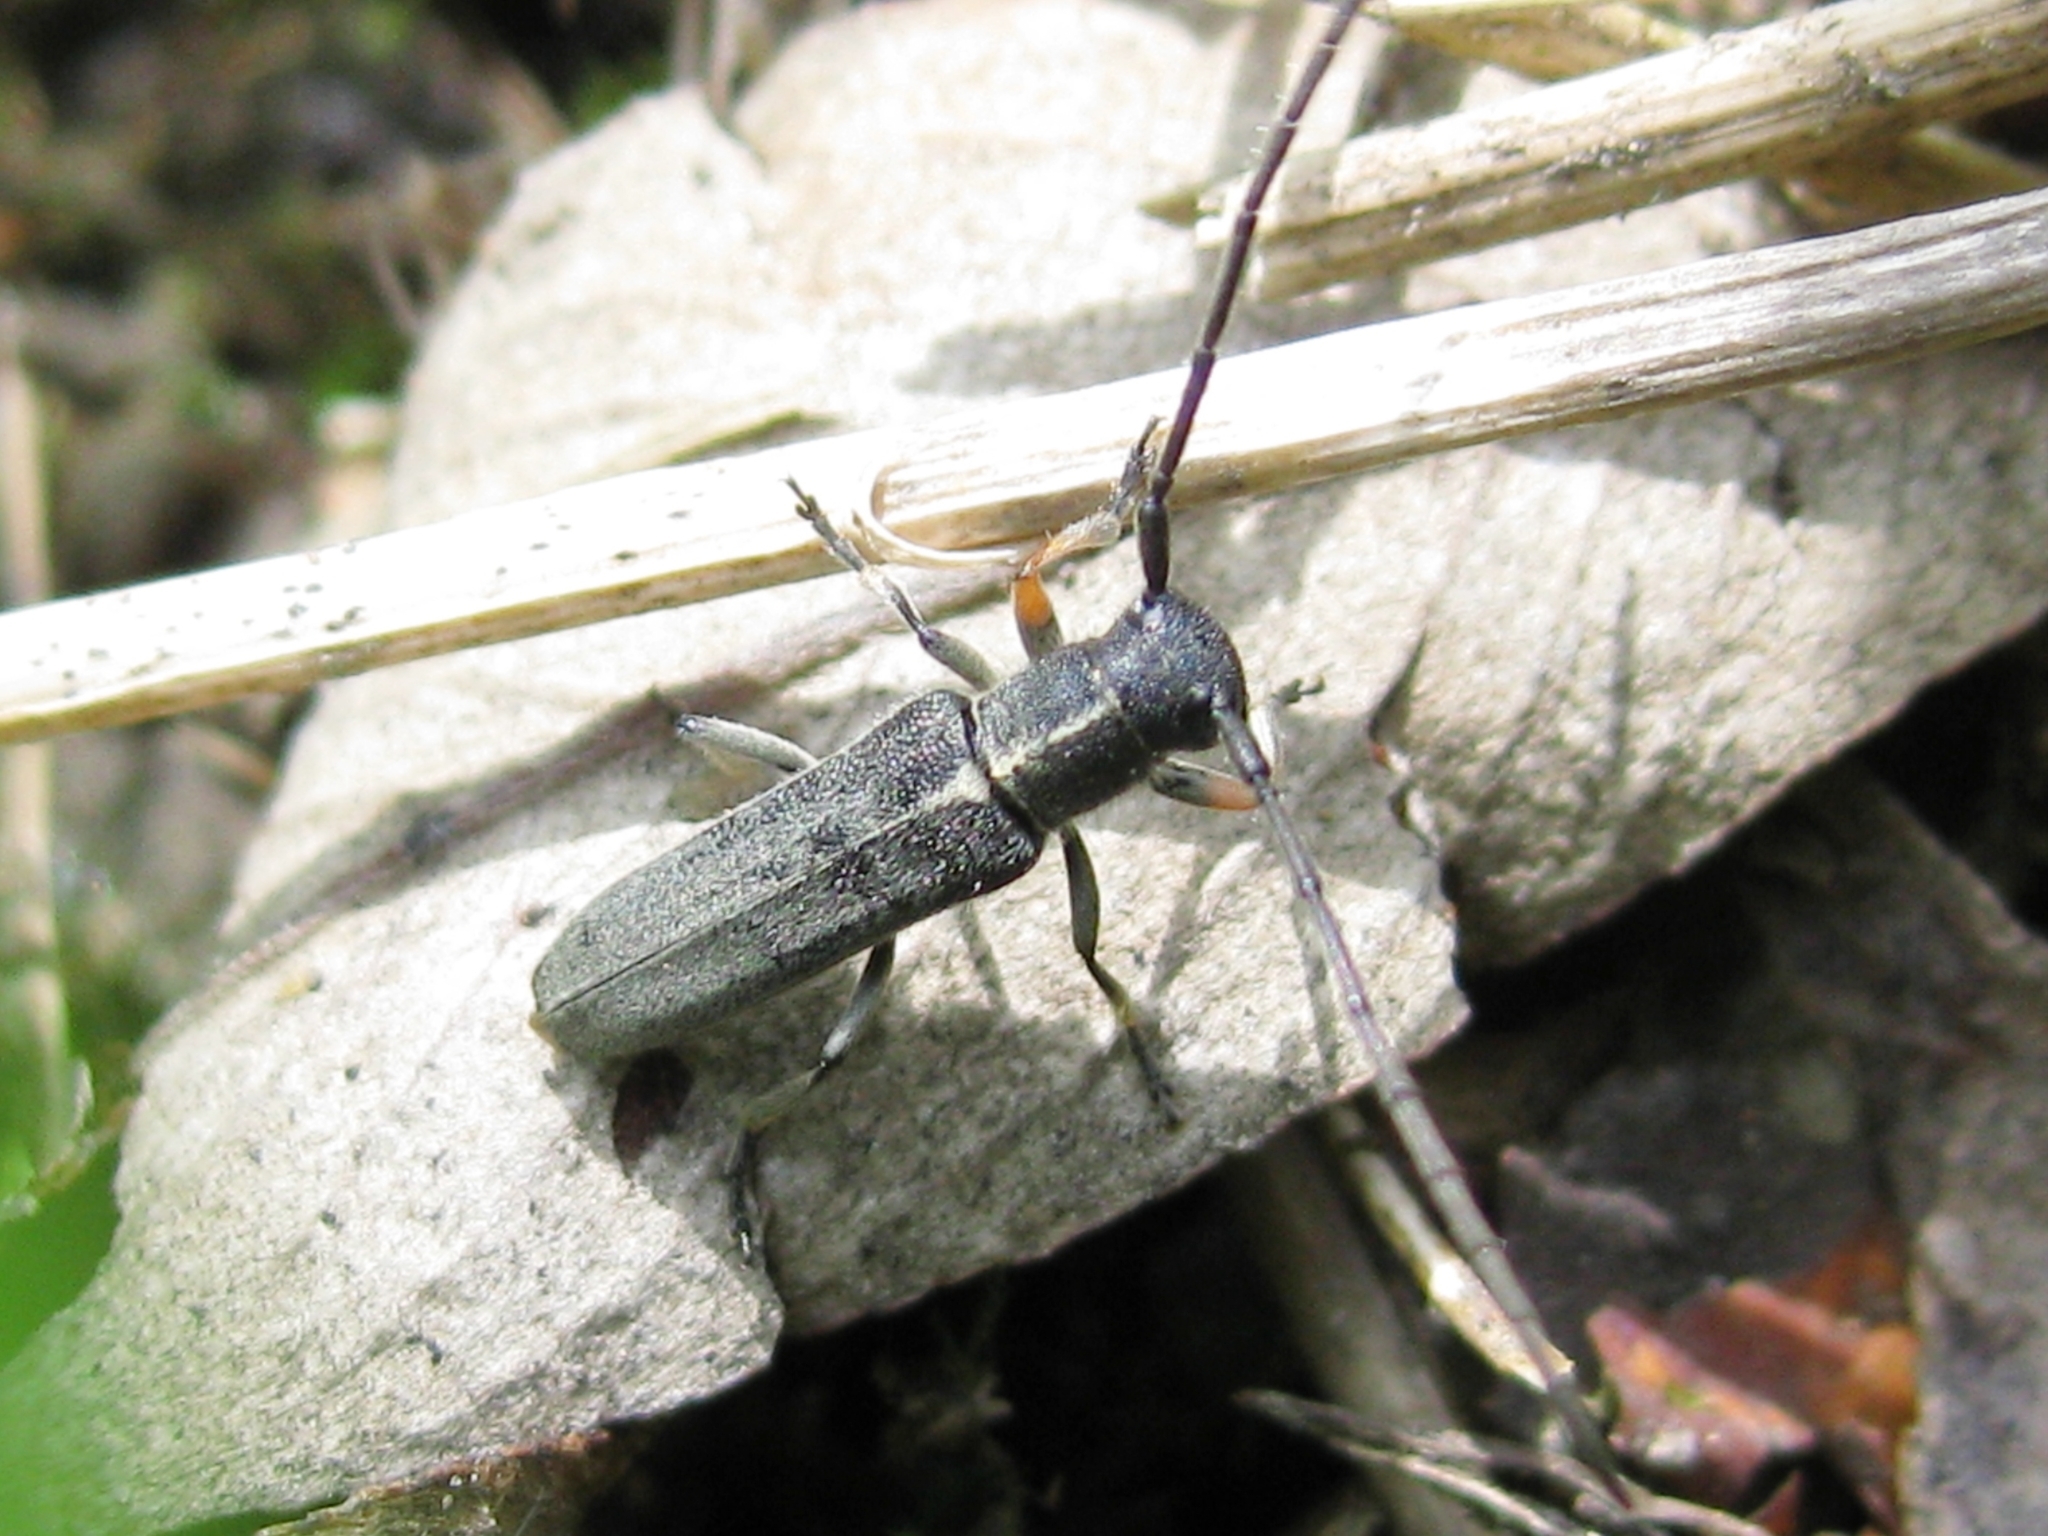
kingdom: Animalia
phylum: Arthropoda
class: Insecta
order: Coleoptera
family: Cerambycidae
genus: Phytoecia
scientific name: Phytoecia cylindrica
